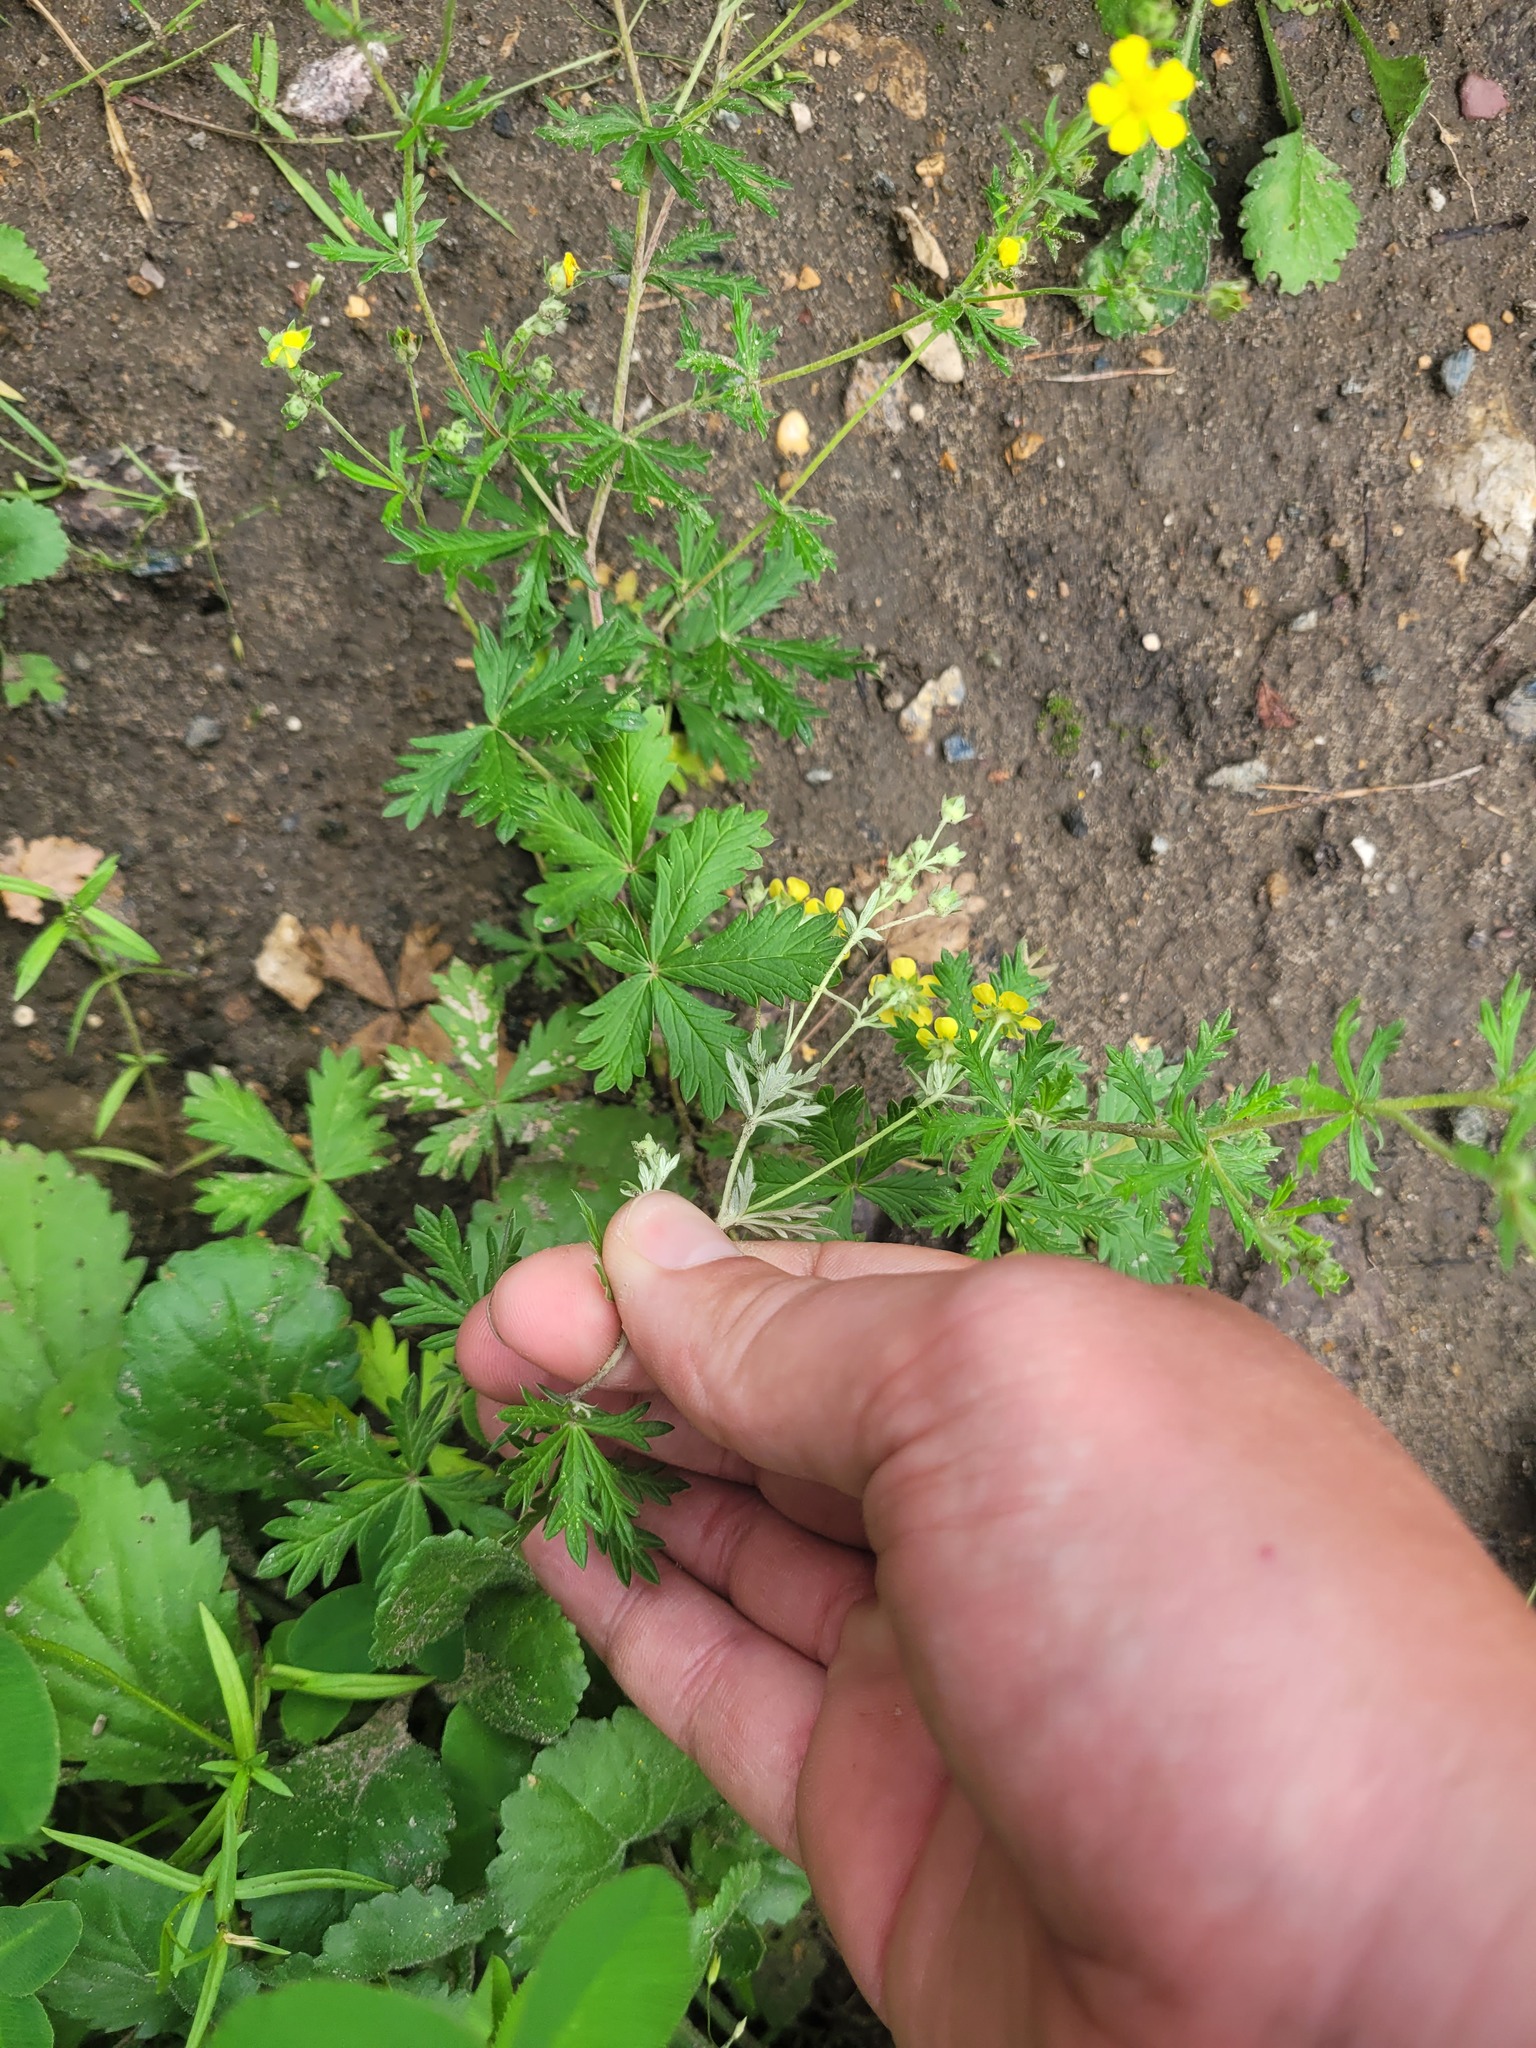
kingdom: Plantae
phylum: Tracheophyta
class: Magnoliopsida
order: Rosales
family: Rosaceae
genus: Potentilla
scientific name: Potentilla argentea
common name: Hoary cinquefoil
